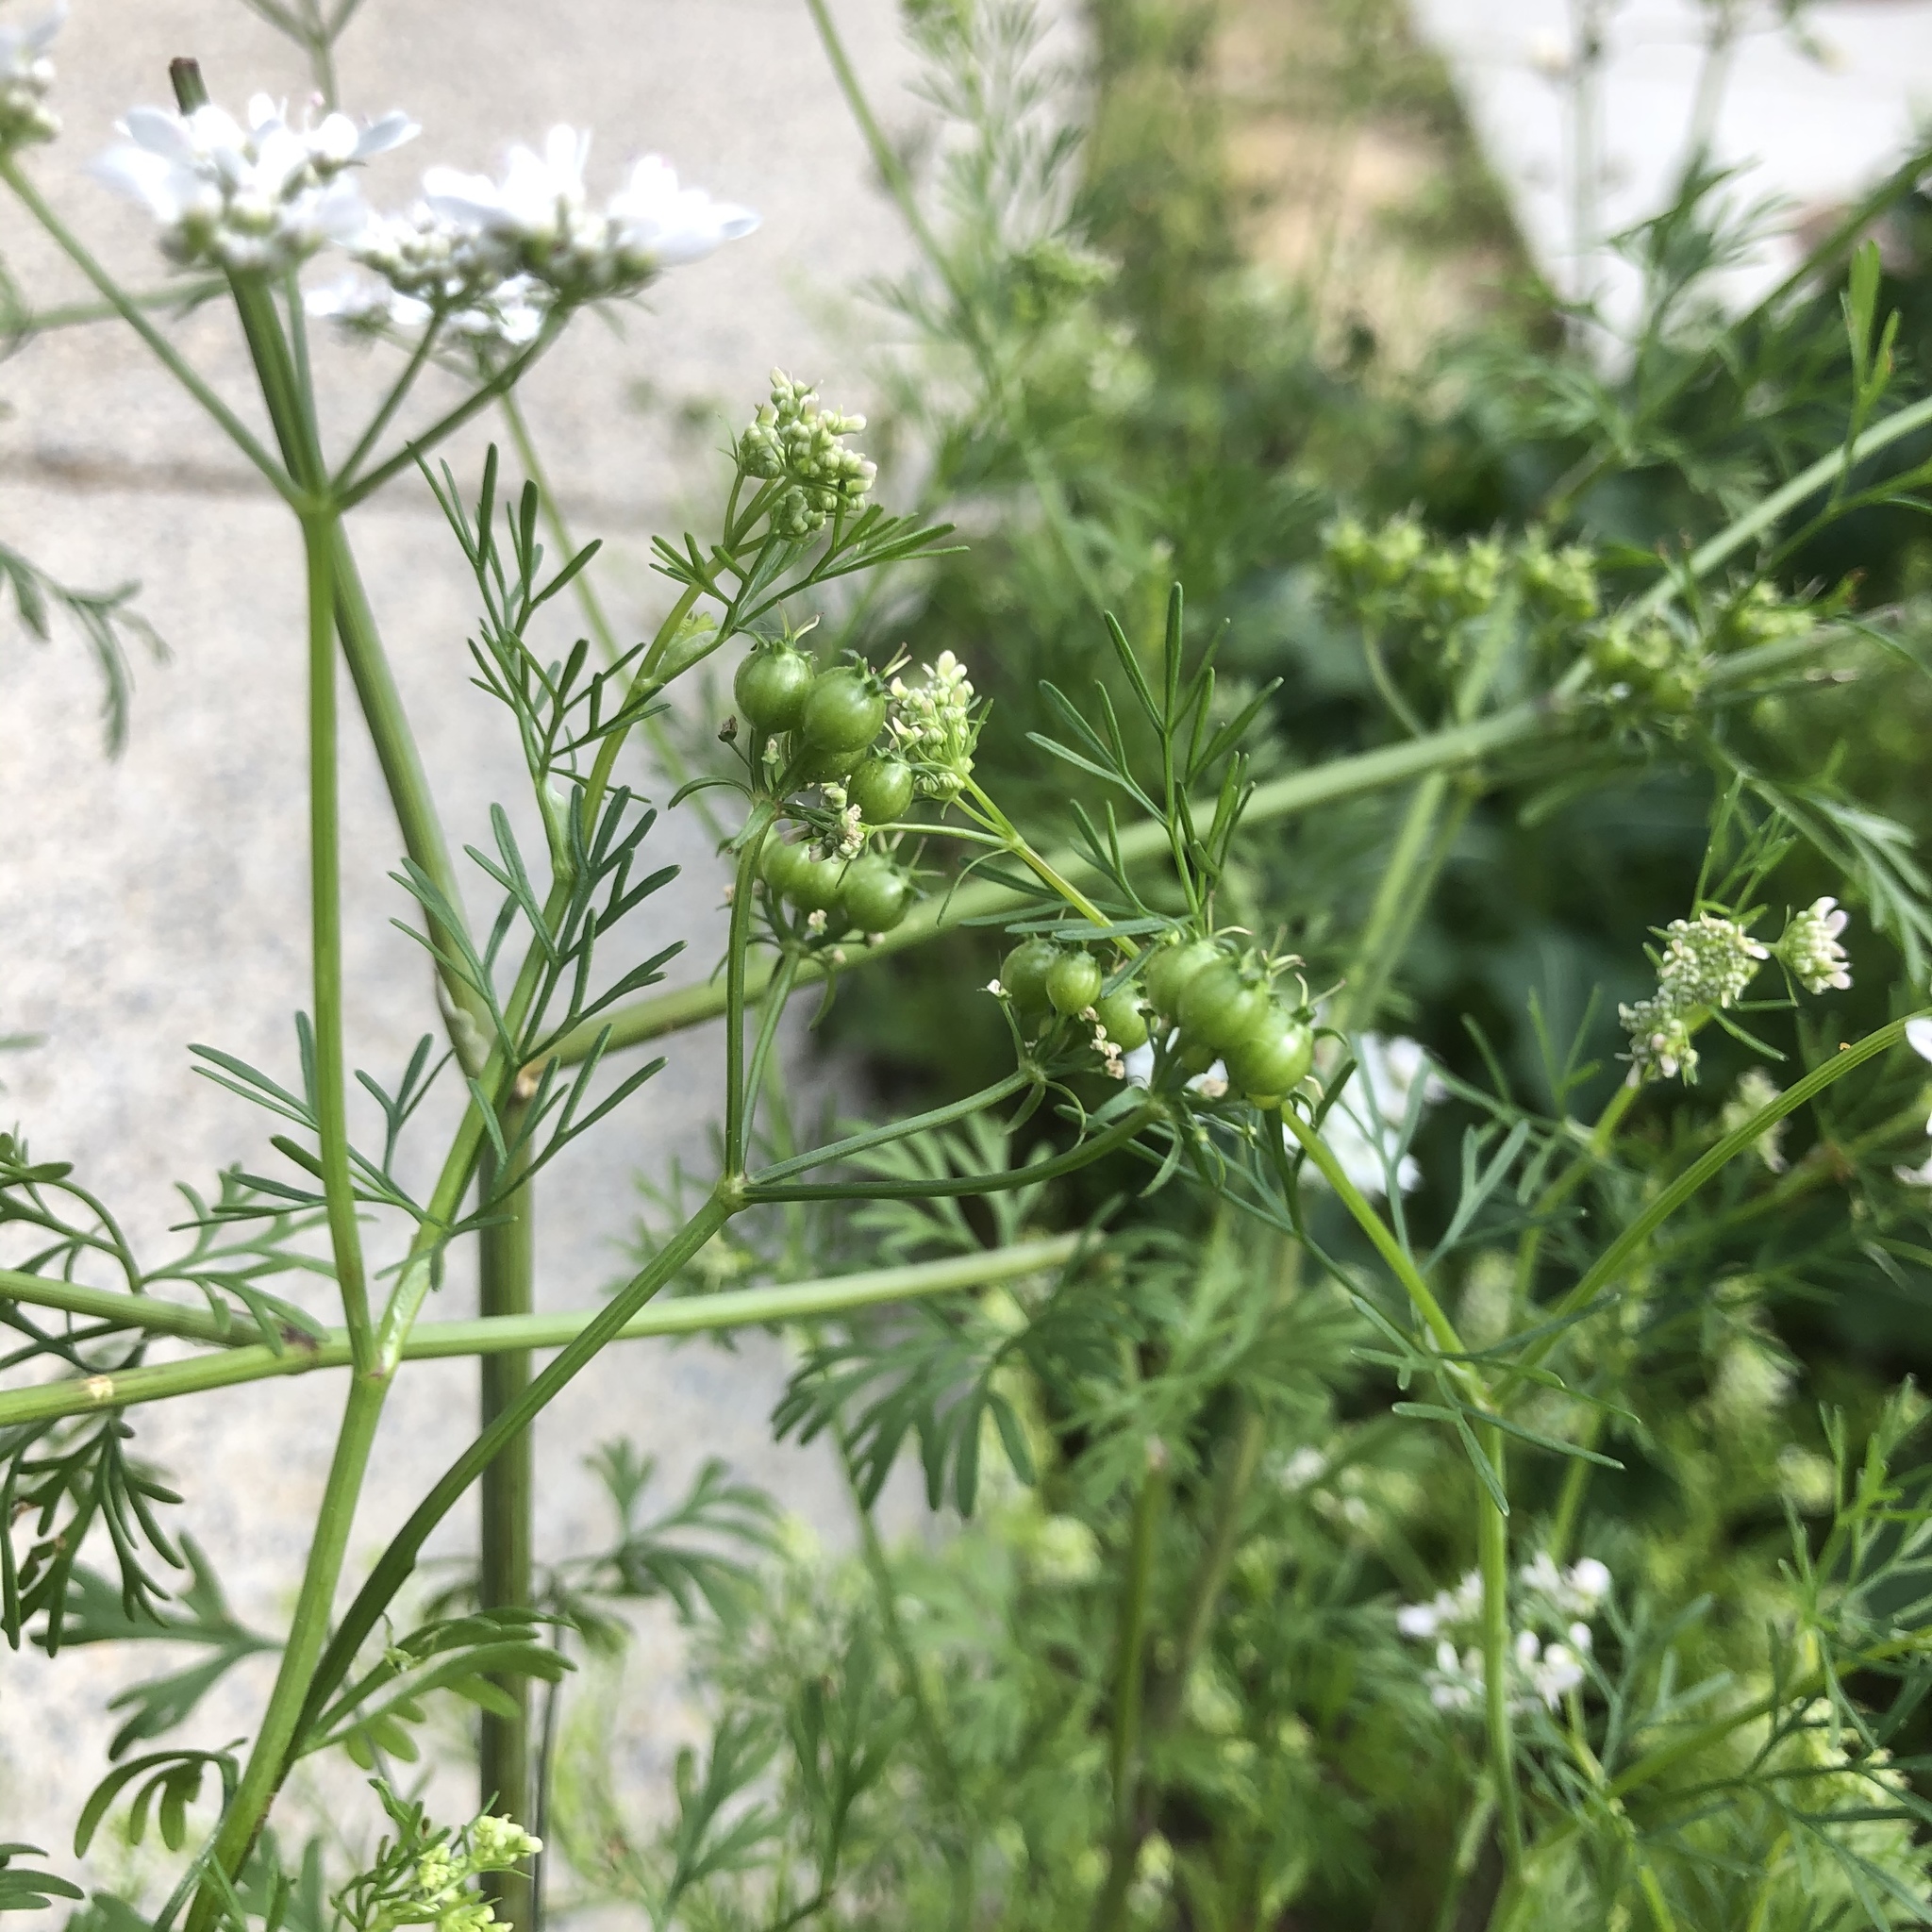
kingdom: Plantae
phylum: Tracheophyta
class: Magnoliopsida
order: Apiales
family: Apiaceae
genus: Coriandrum
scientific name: Coriandrum sativum
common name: Coriander
